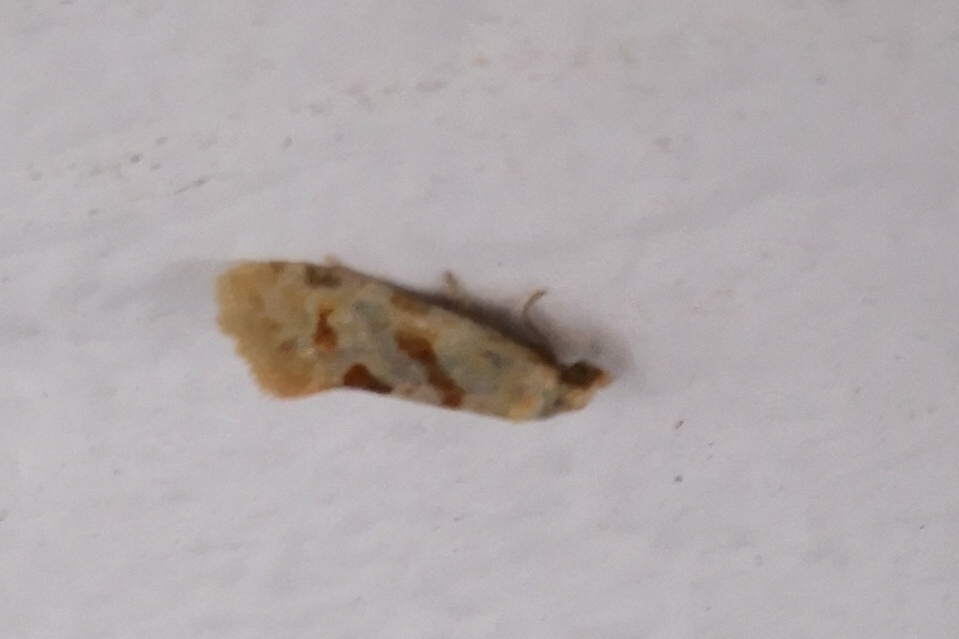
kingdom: Animalia
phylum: Arthropoda
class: Insecta
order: Lepidoptera
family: Tortricidae
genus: Aethes
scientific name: Aethes smeathmanniana
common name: Yarrow conch
